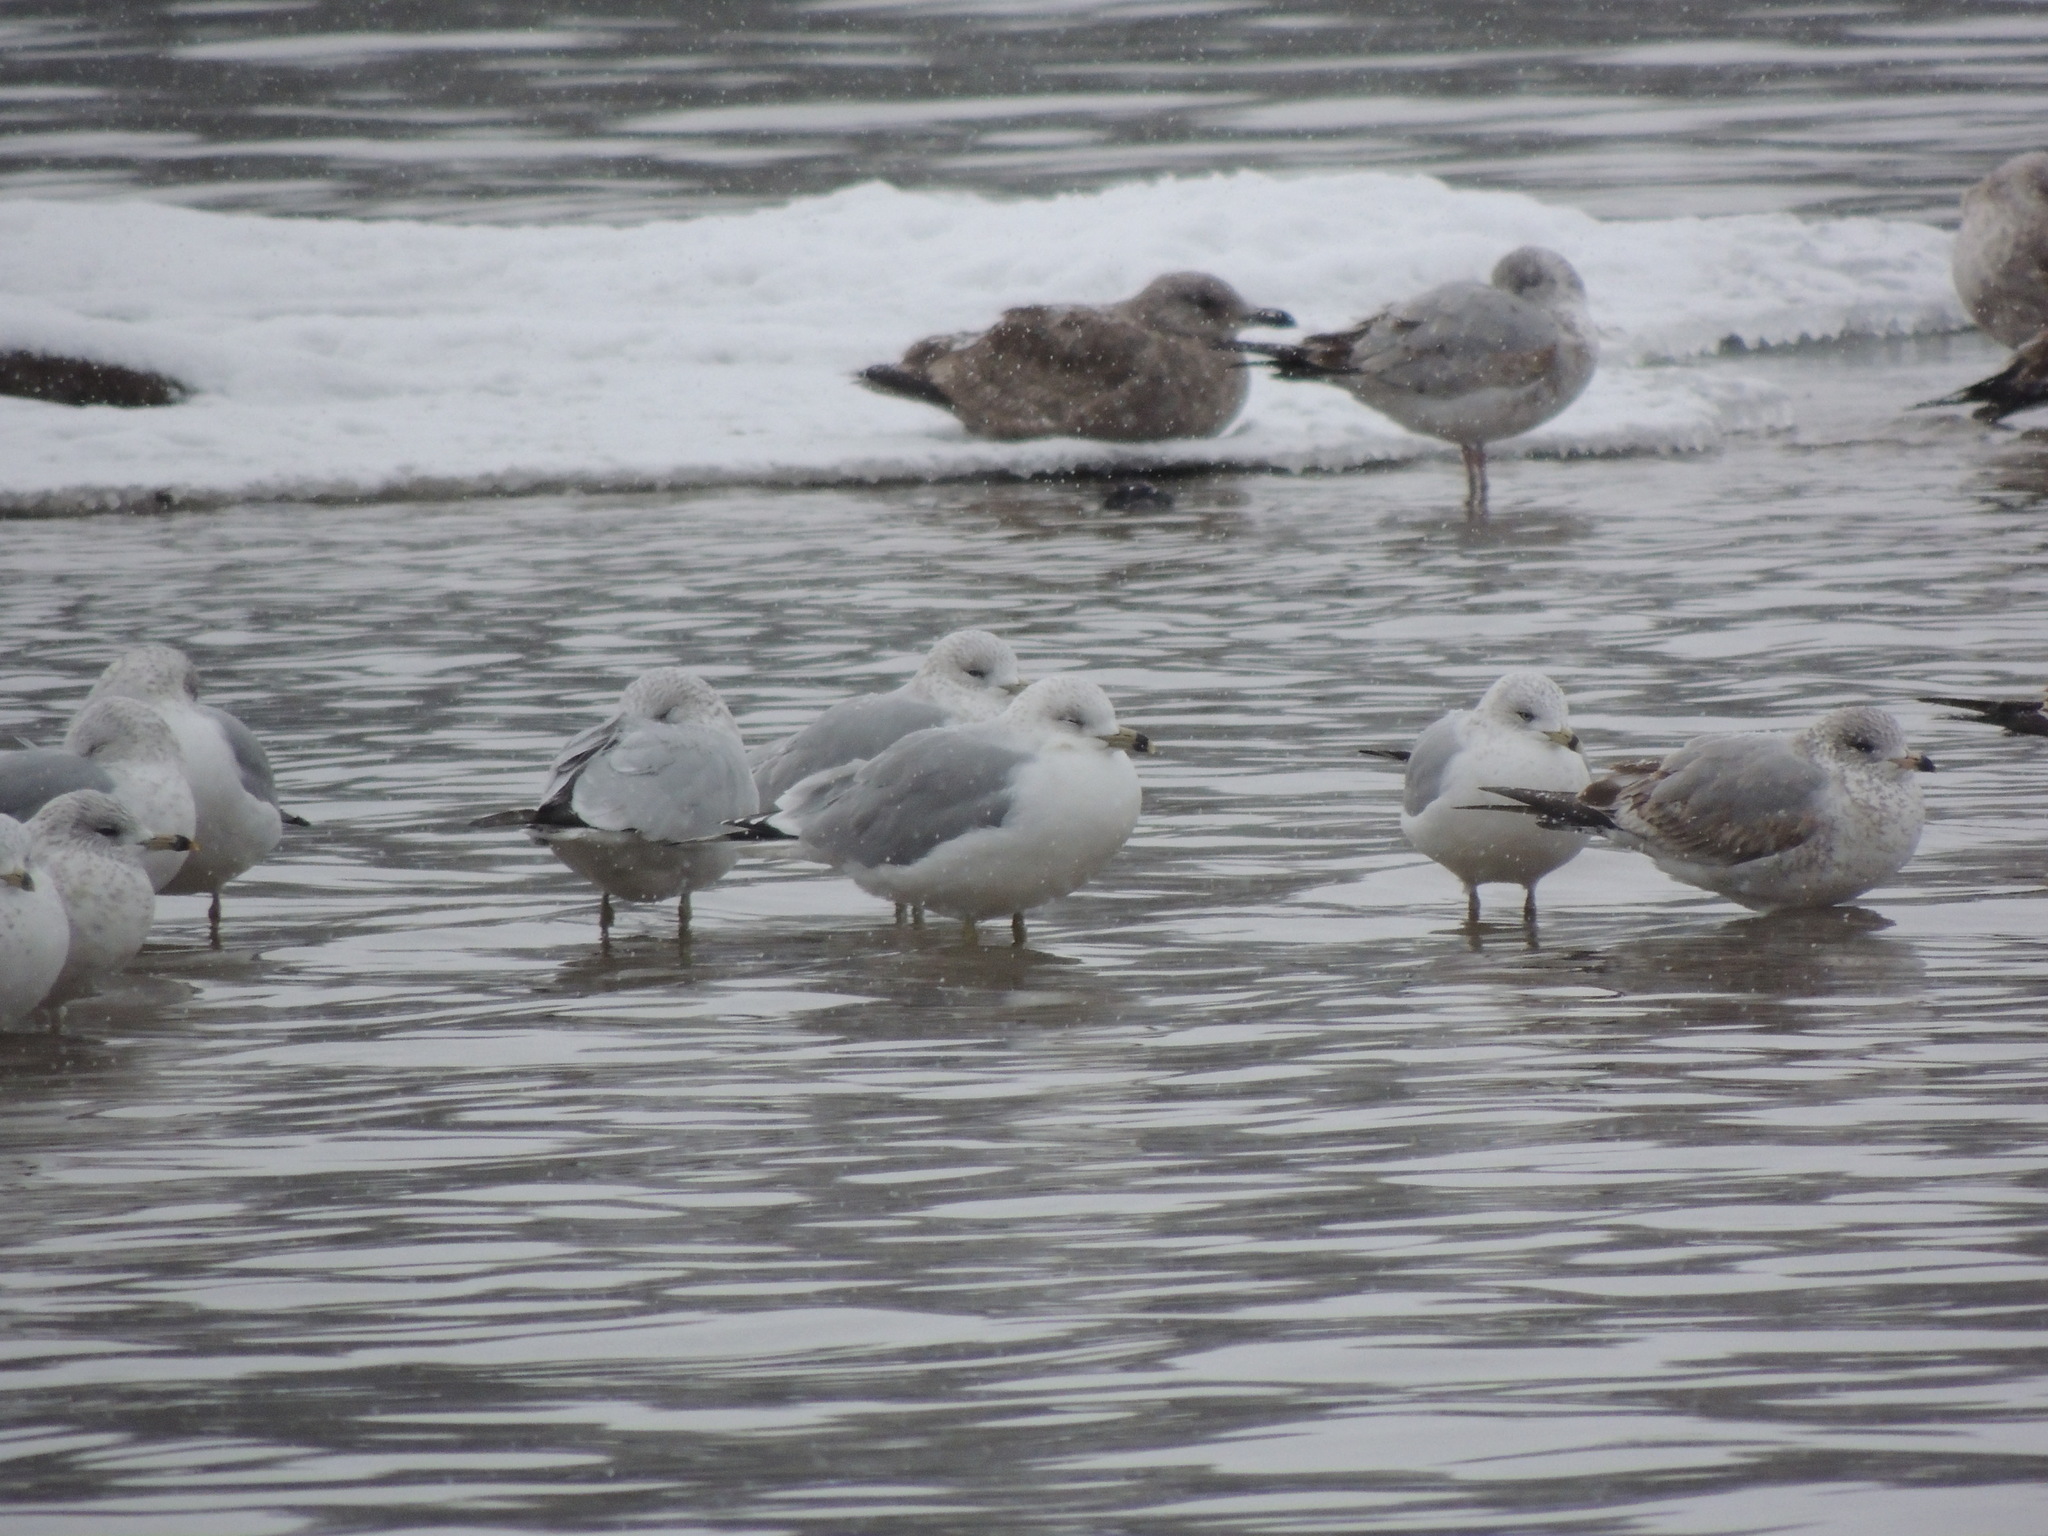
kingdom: Animalia
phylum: Chordata
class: Aves
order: Charadriiformes
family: Laridae
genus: Larus
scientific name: Larus delawarensis
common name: Ring-billed gull
